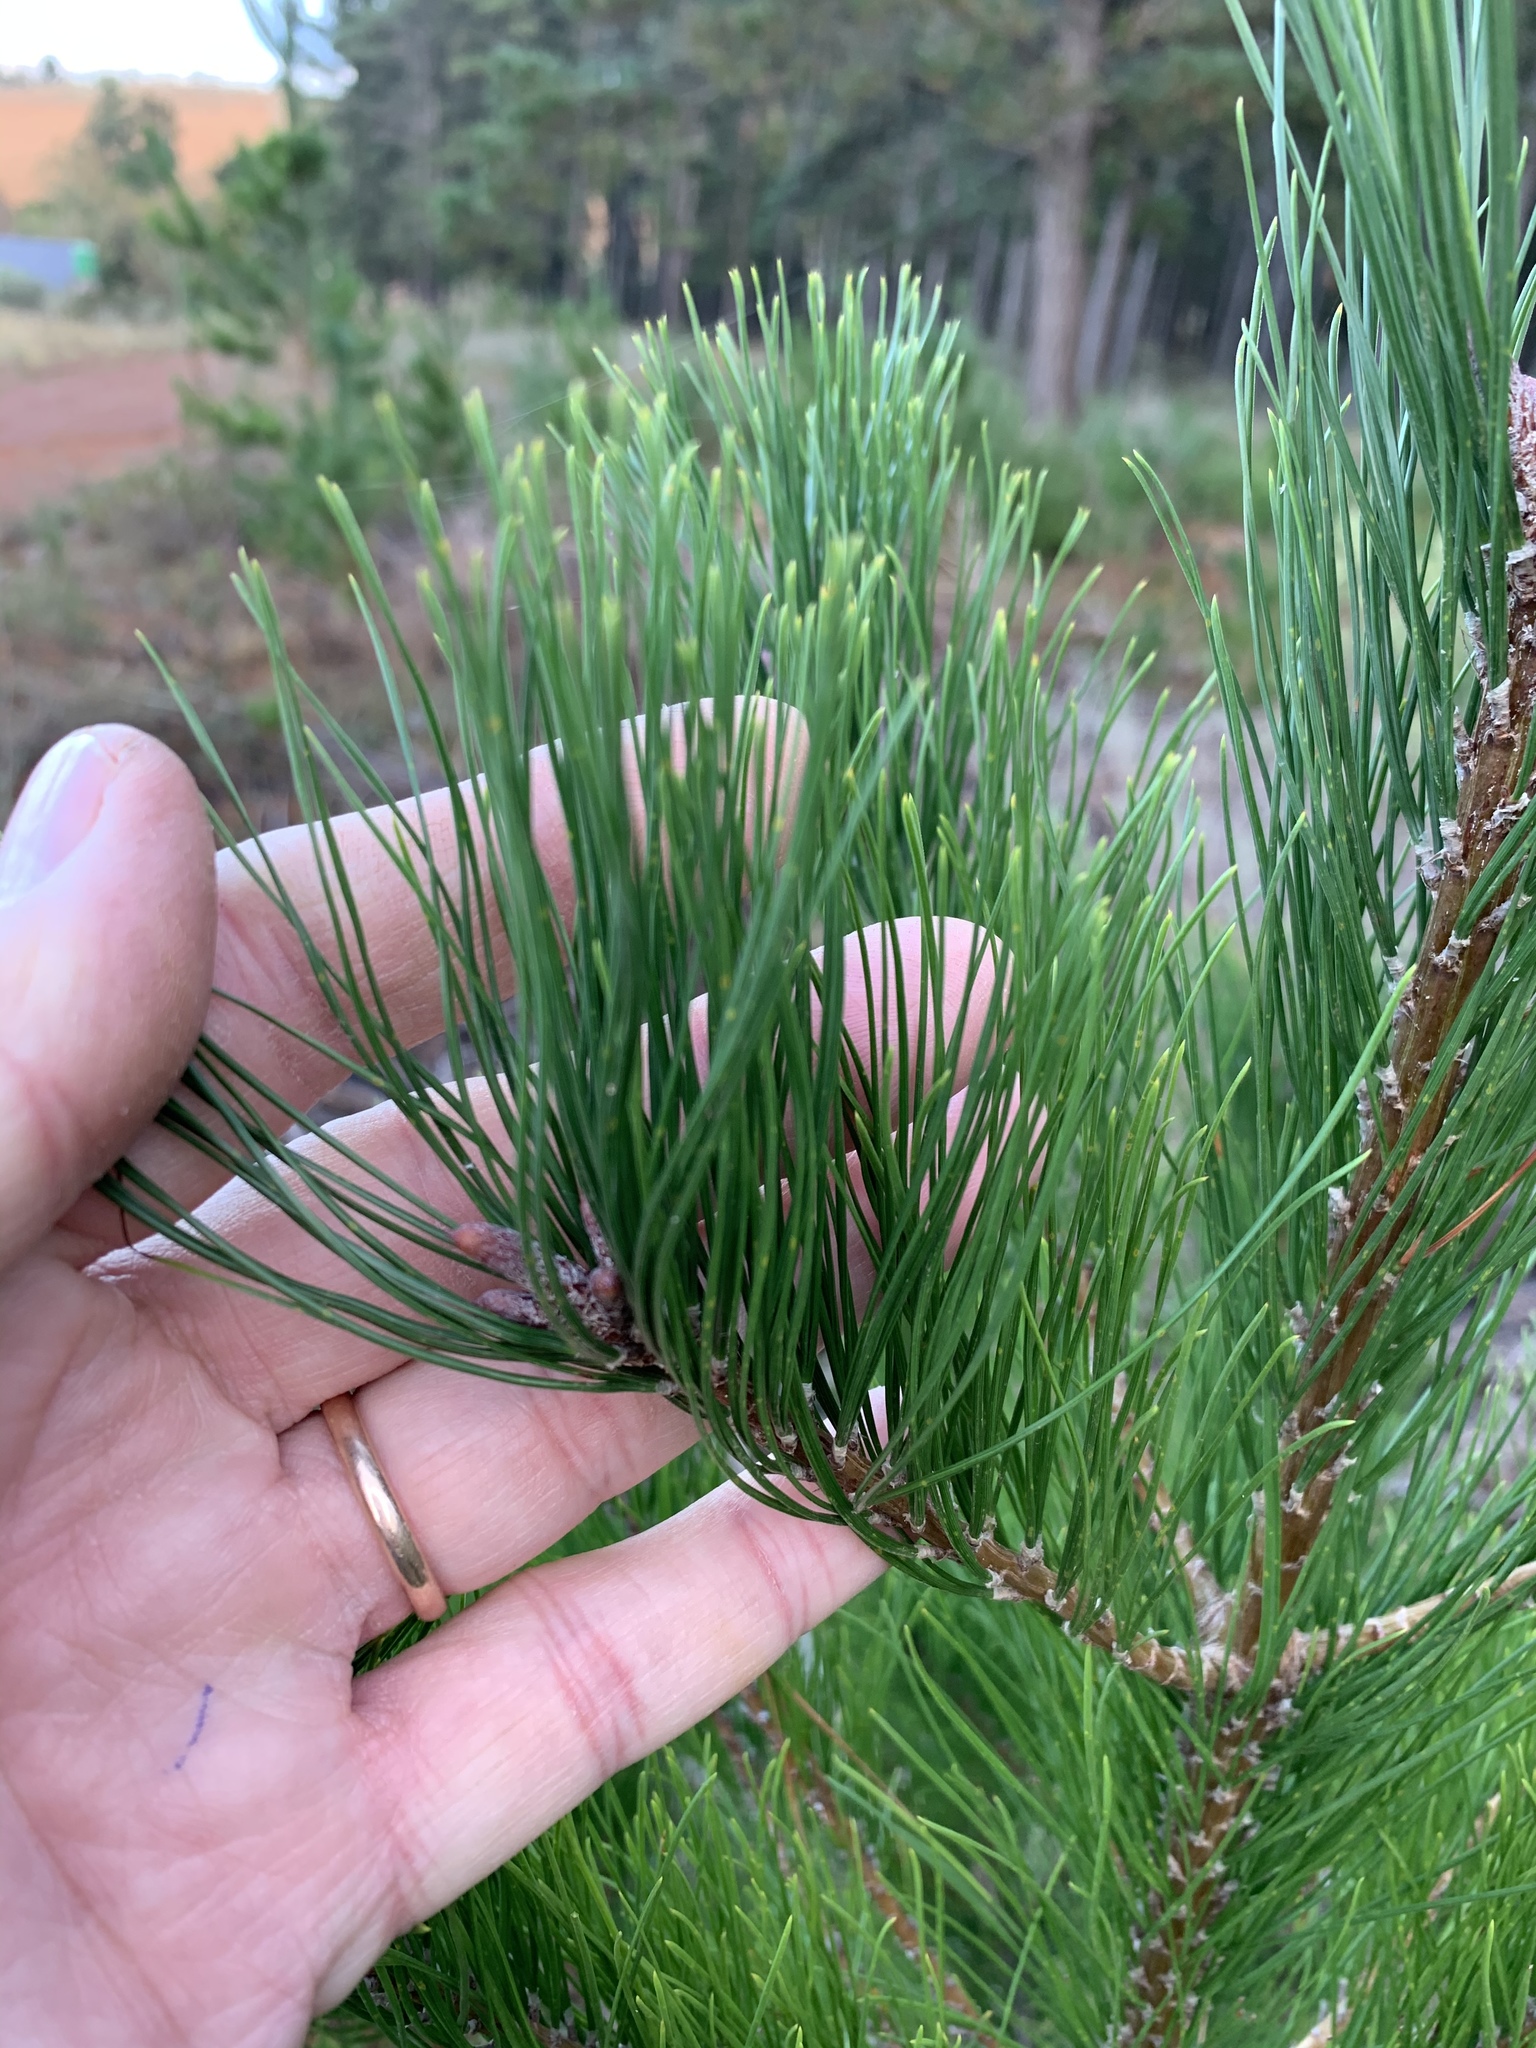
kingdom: Plantae
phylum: Tracheophyta
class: Pinopsida
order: Pinales
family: Pinaceae
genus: Pinus
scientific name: Pinus radiata
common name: Monterey pine
